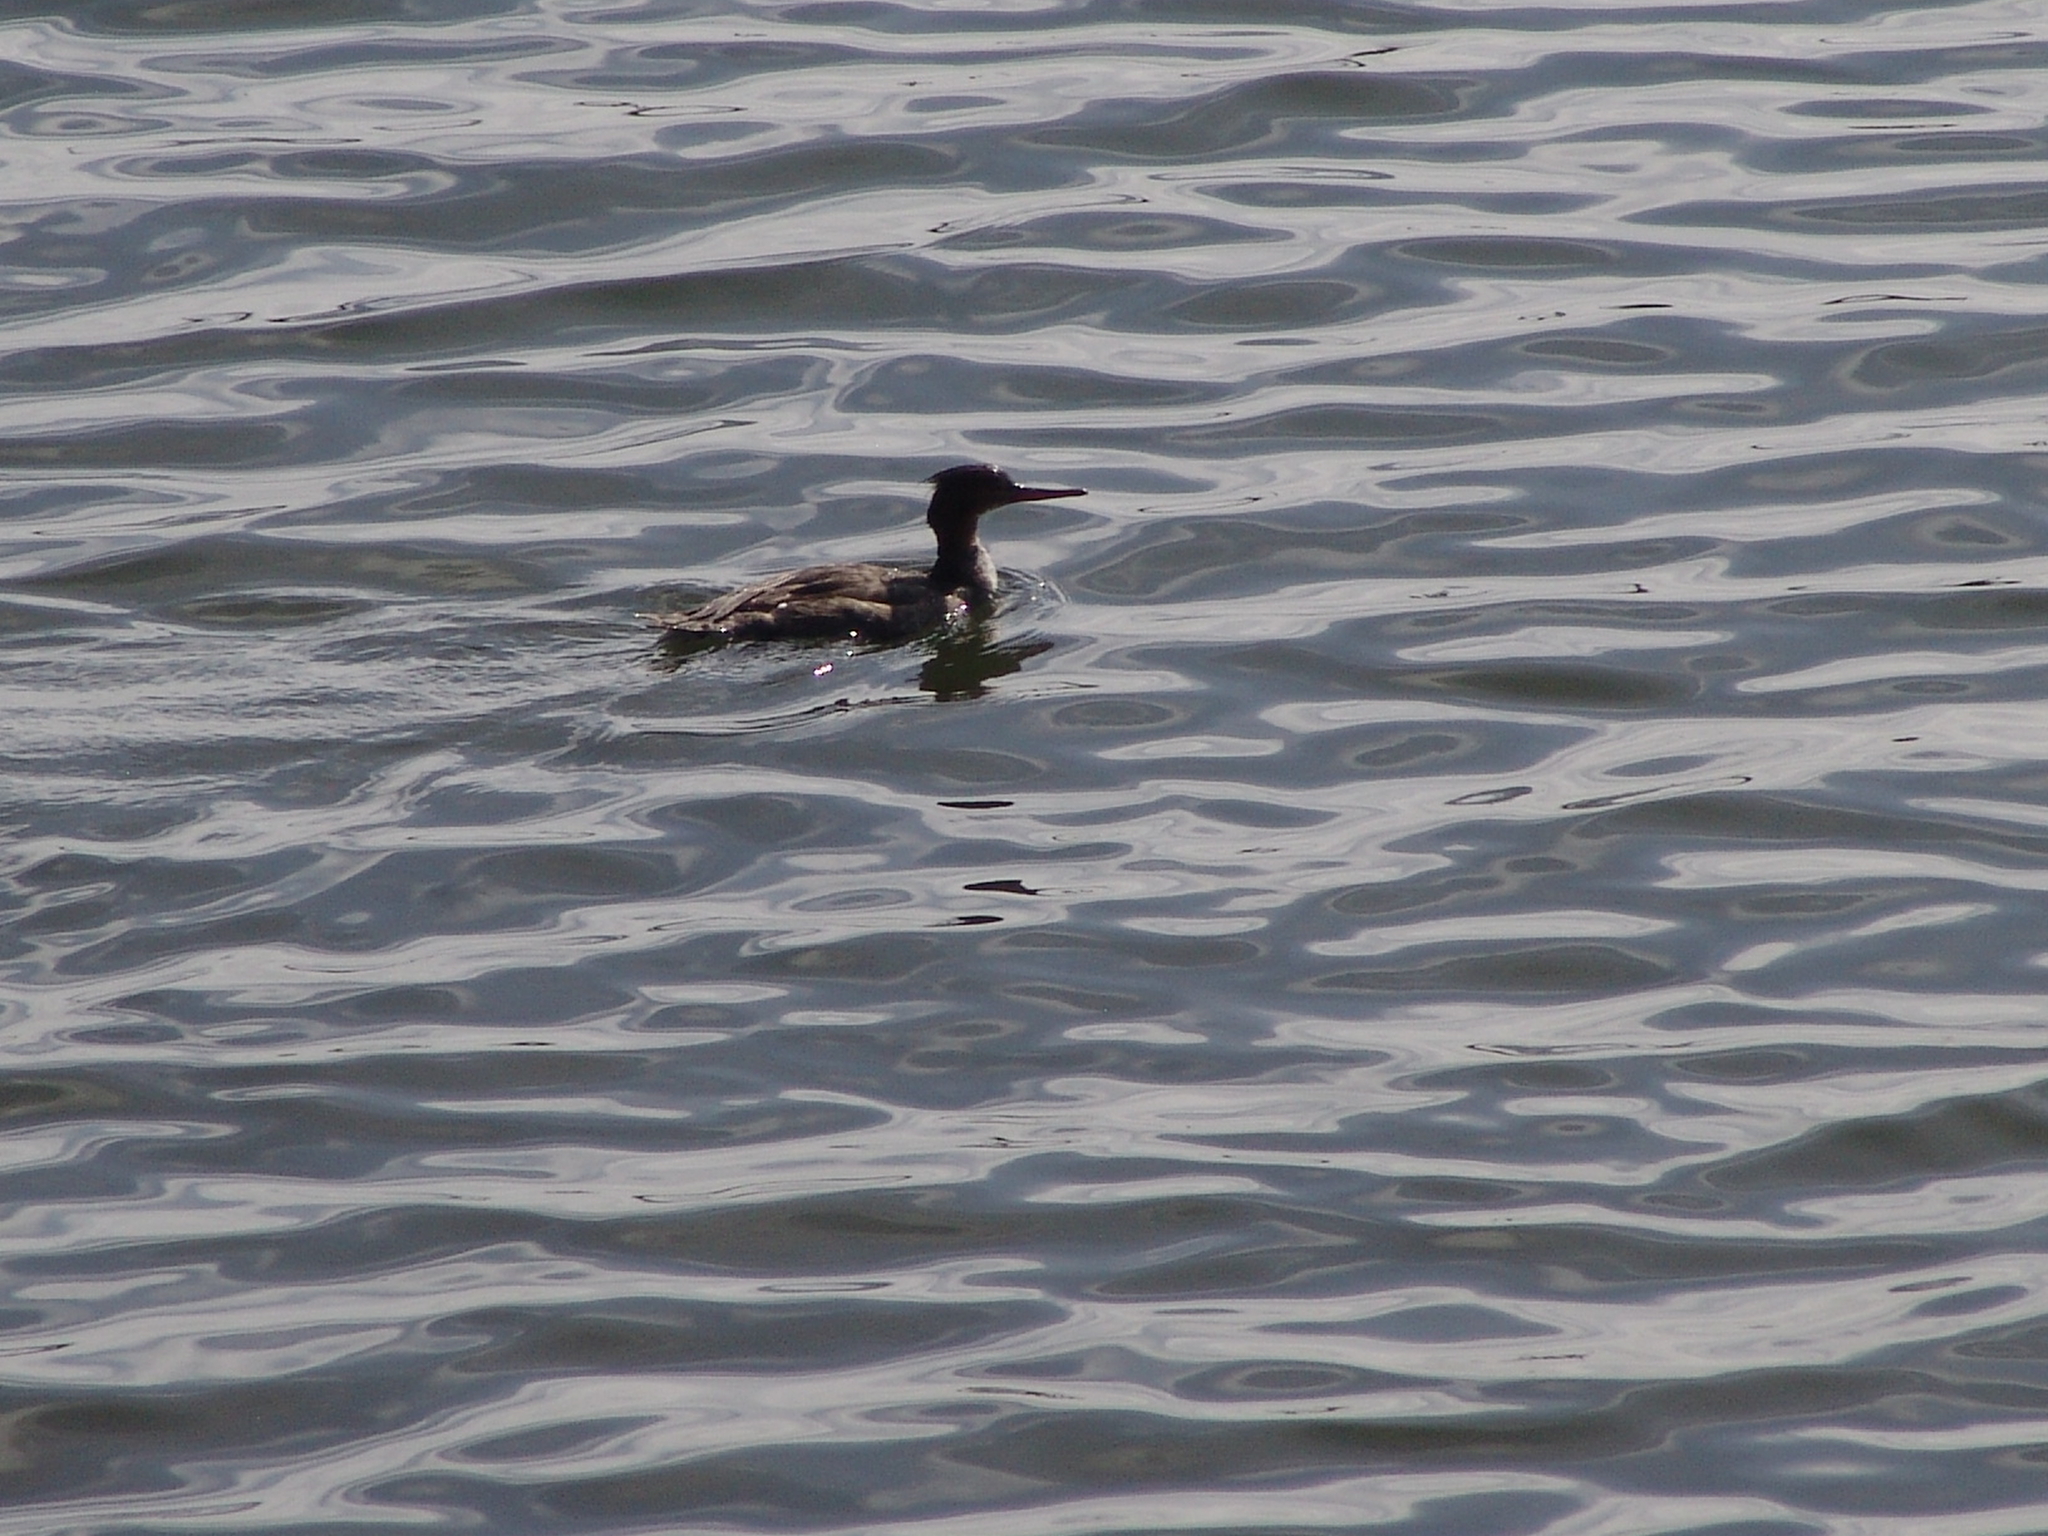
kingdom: Animalia
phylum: Chordata
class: Aves
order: Anseriformes
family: Anatidae
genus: Mergus
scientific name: Mergus serrator
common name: Red-breasted merganser
